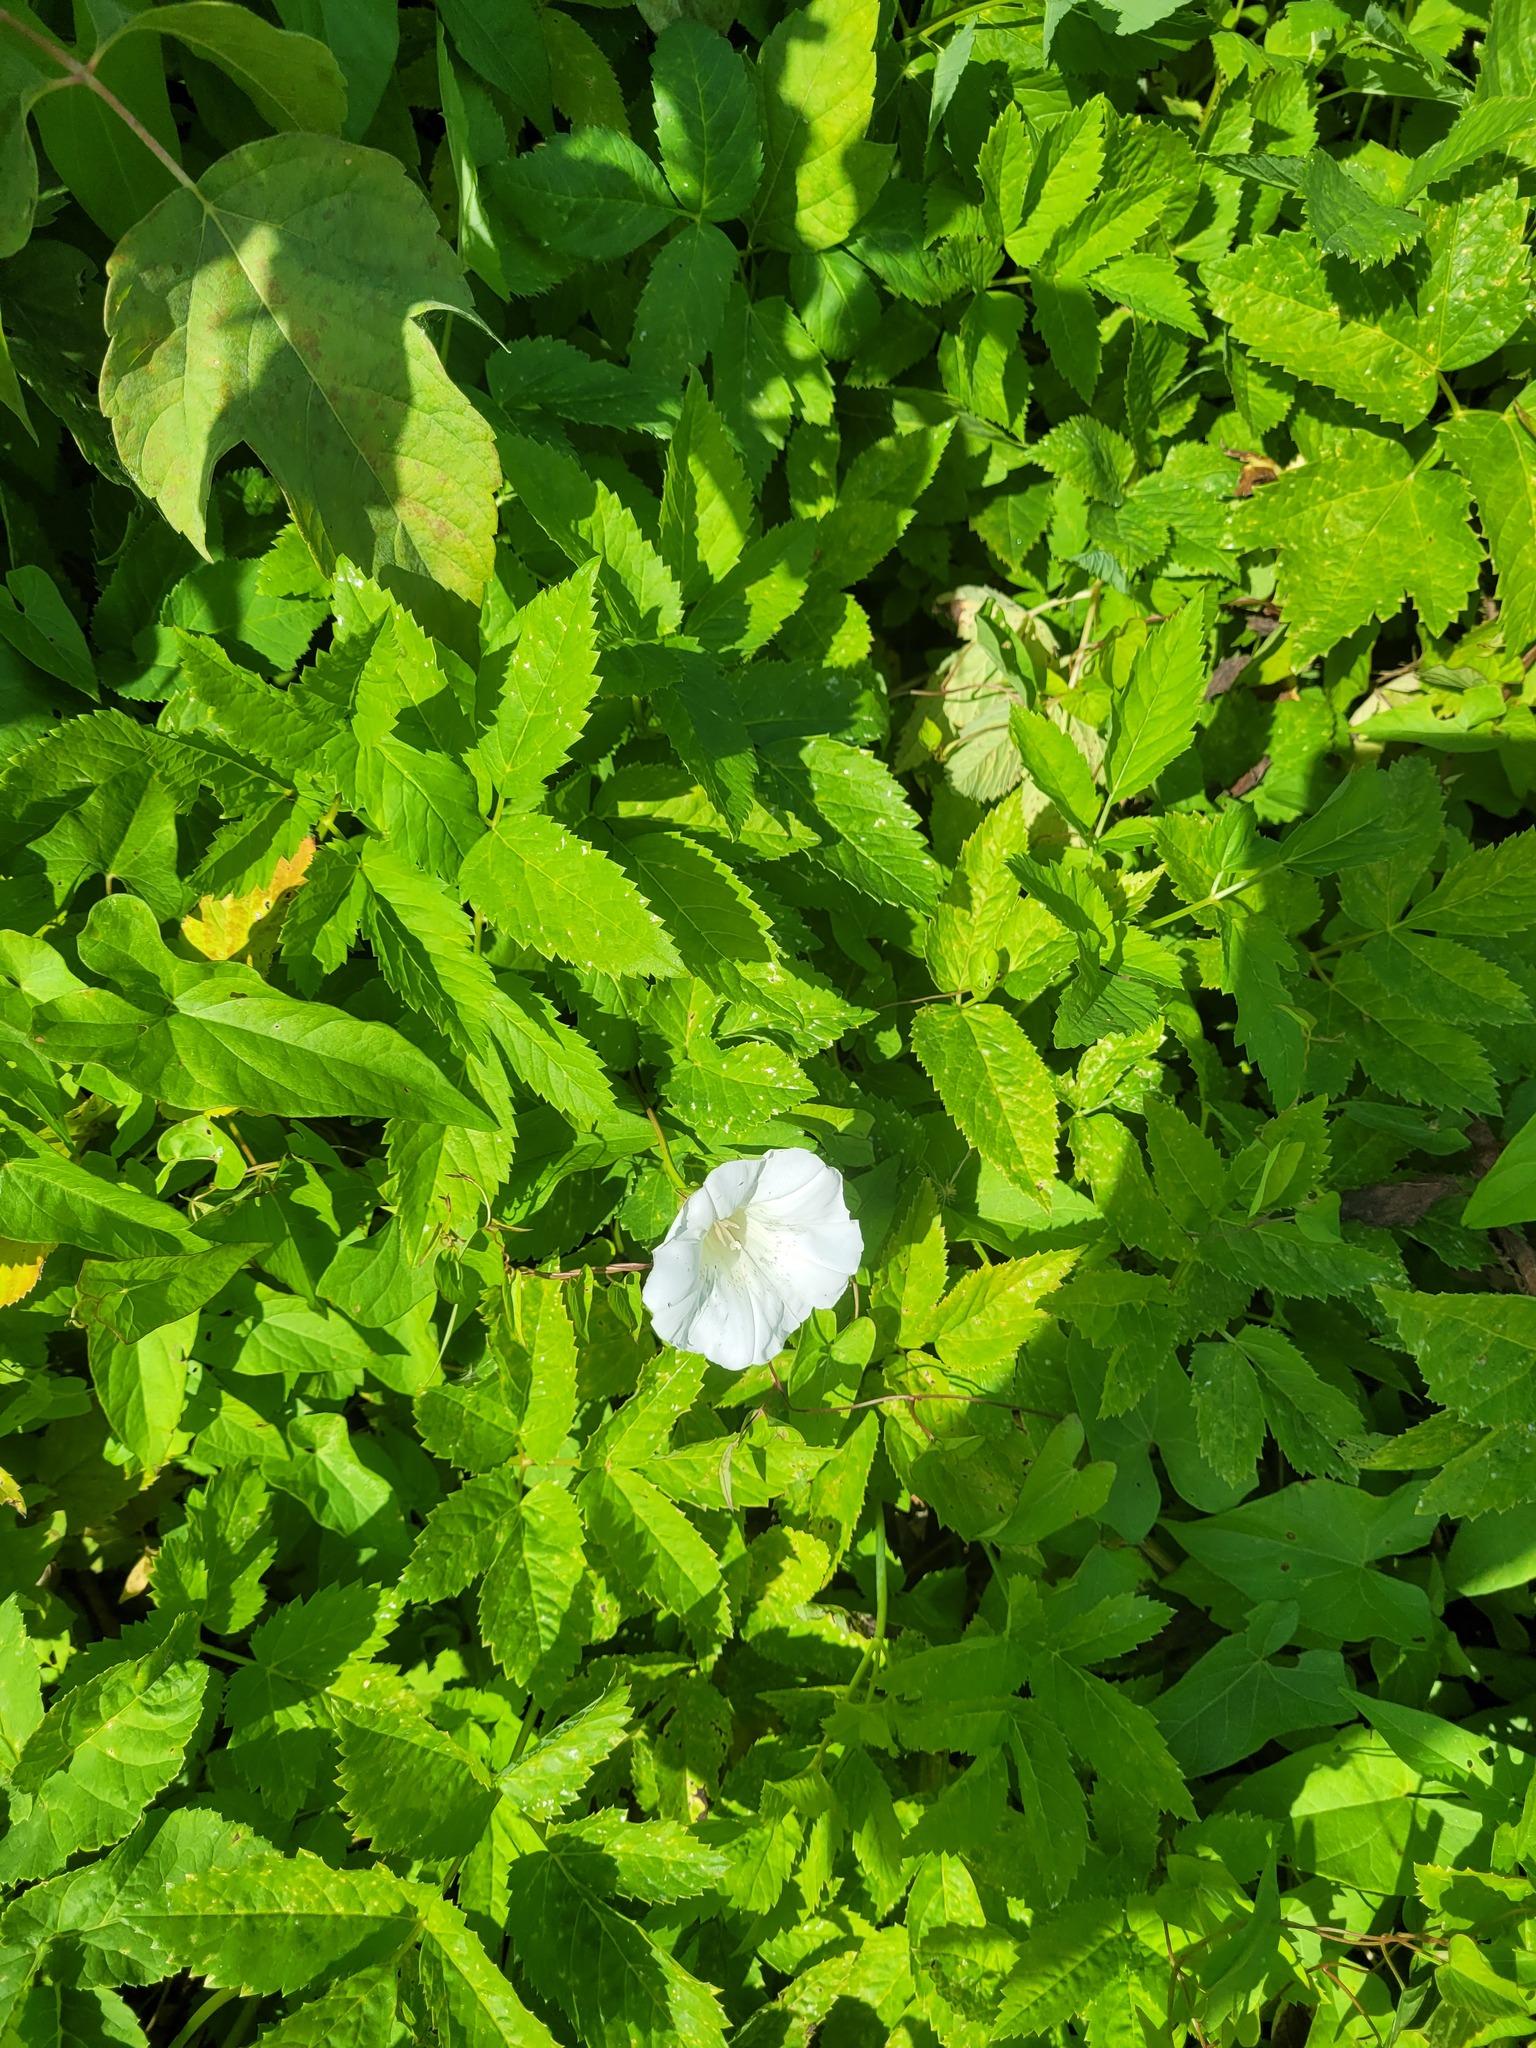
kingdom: Plantae
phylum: Tracheophyta
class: Magnoliopsida
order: Solanales
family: Convolvulaceae
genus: Calystegia
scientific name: Calystegia sepium
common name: Hedge bindweed
